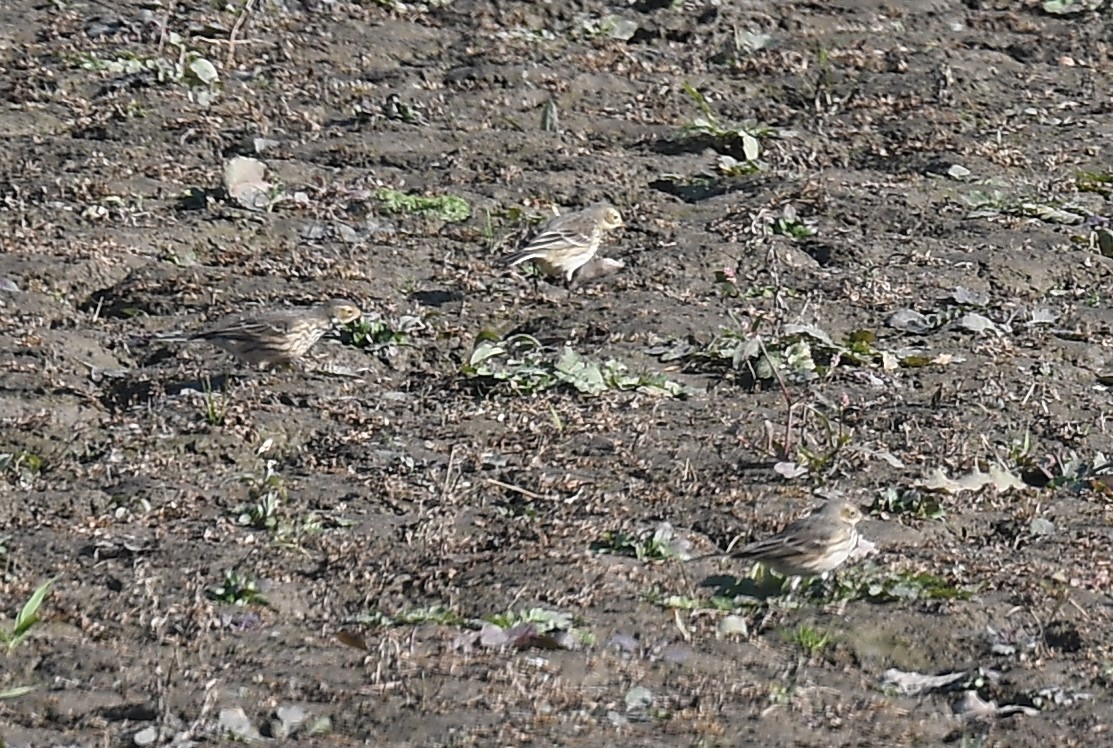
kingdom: Animalia
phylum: Chordata
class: Aves
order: Passeriformes
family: Motacillidae
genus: Anthus
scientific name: Anthus rubescens
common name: Buff-bellied pipit
